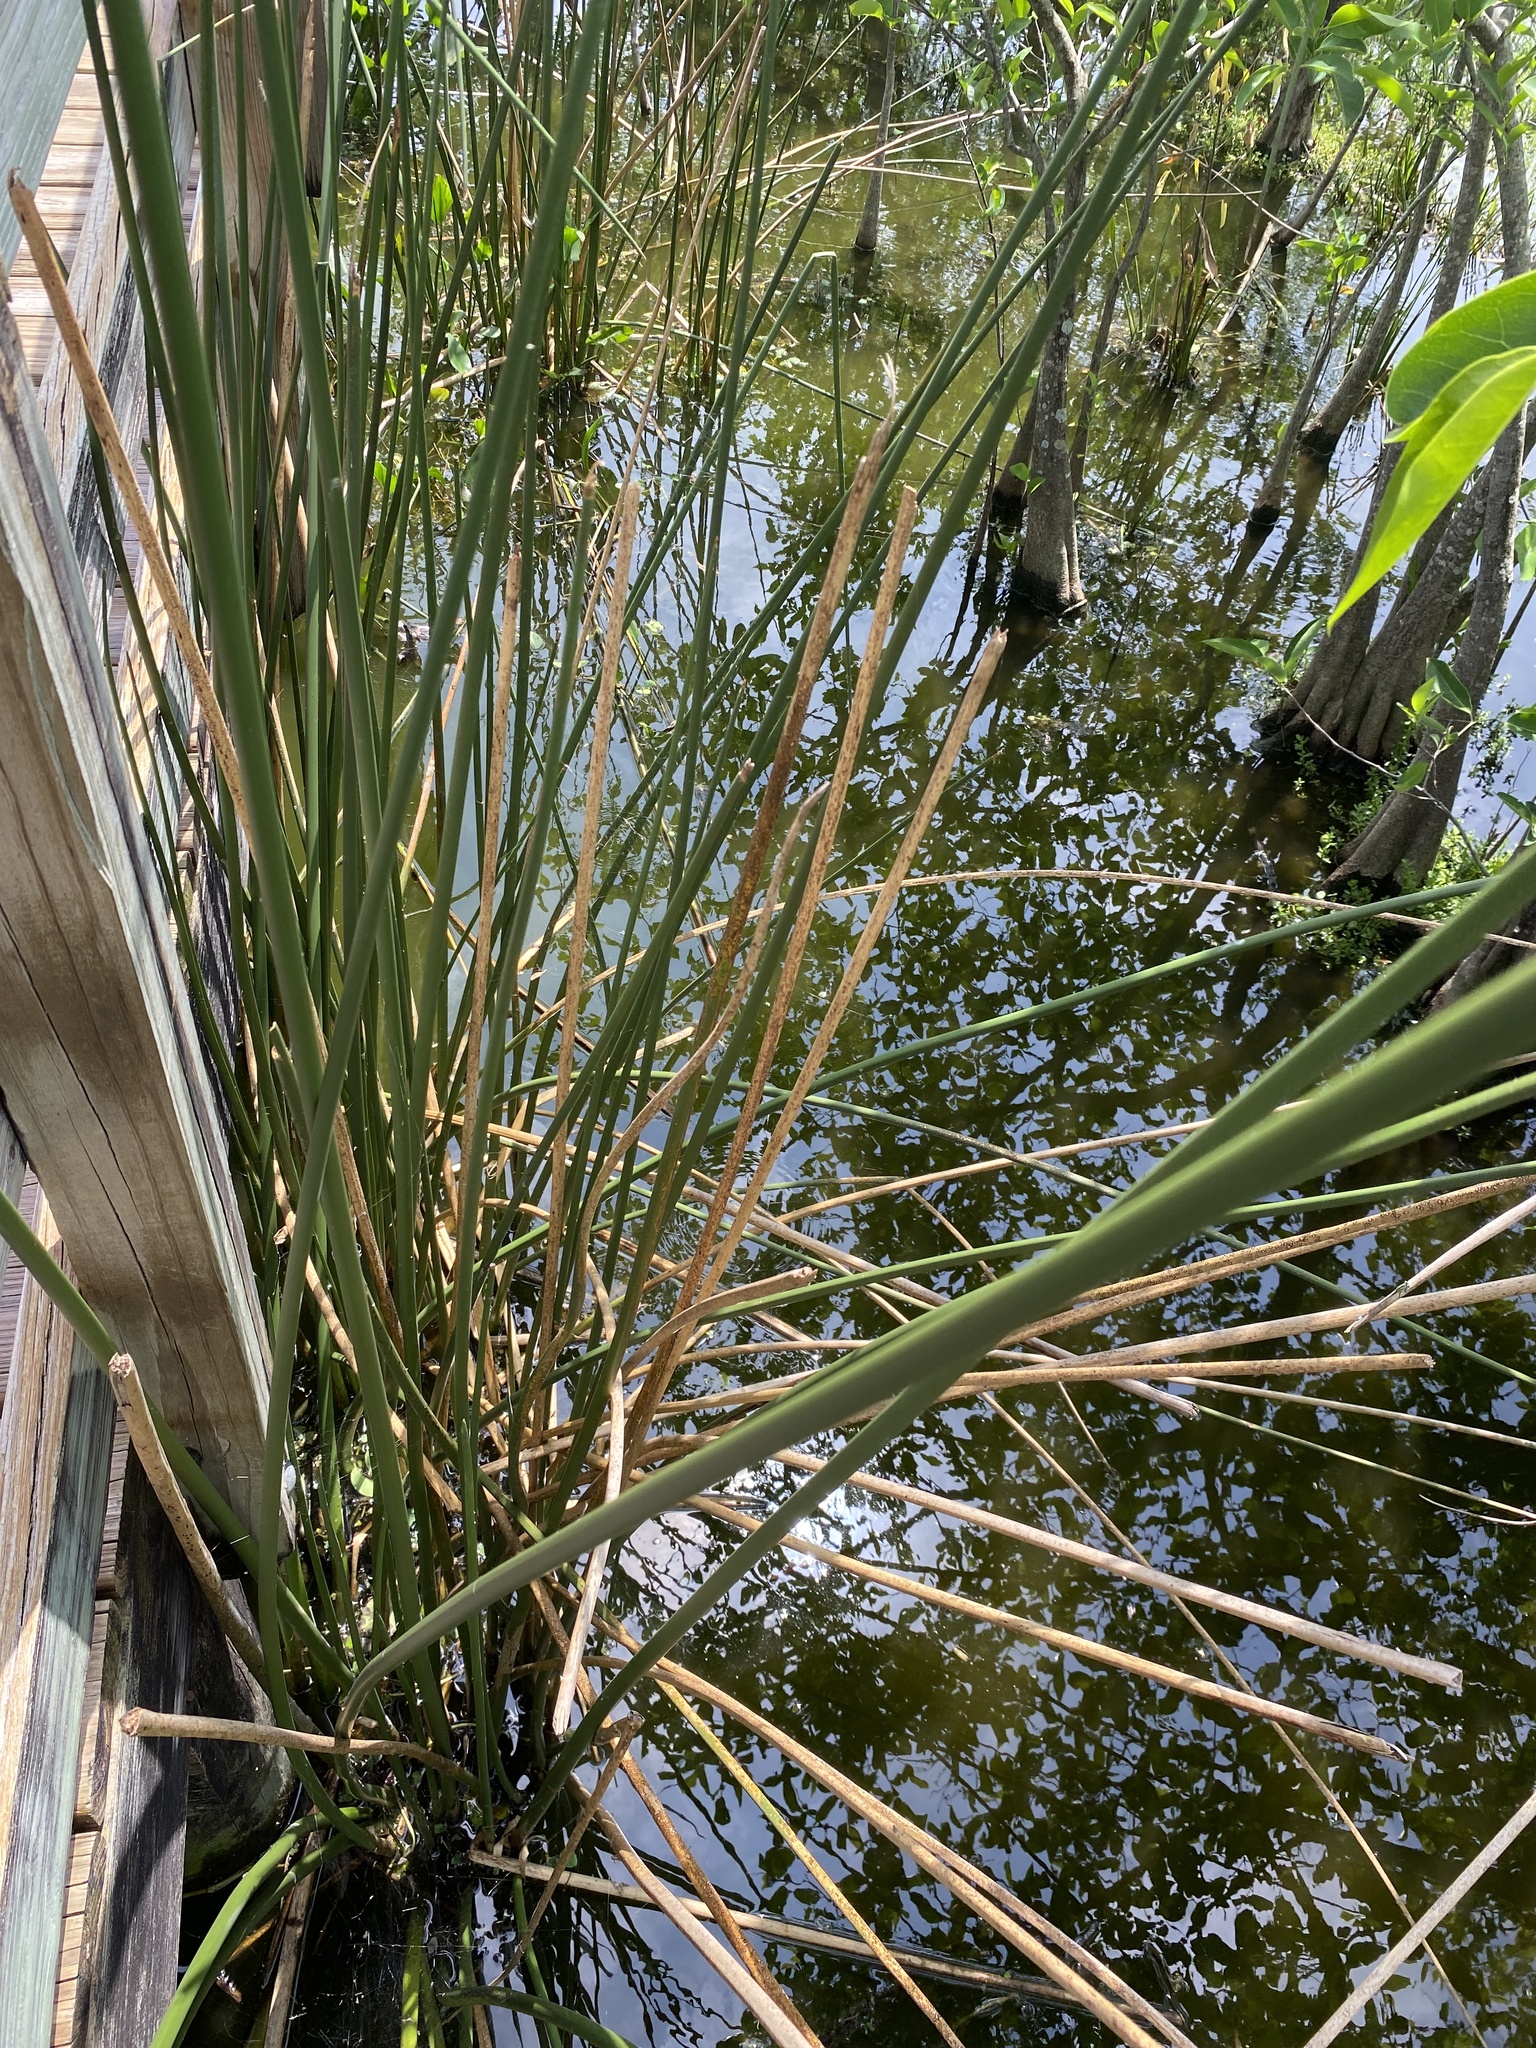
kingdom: Plantae
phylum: Tracheophyta
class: Liliopsida
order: Poales
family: Cyperaceae
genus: Eleocharis
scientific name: Eleocharis interstincta
